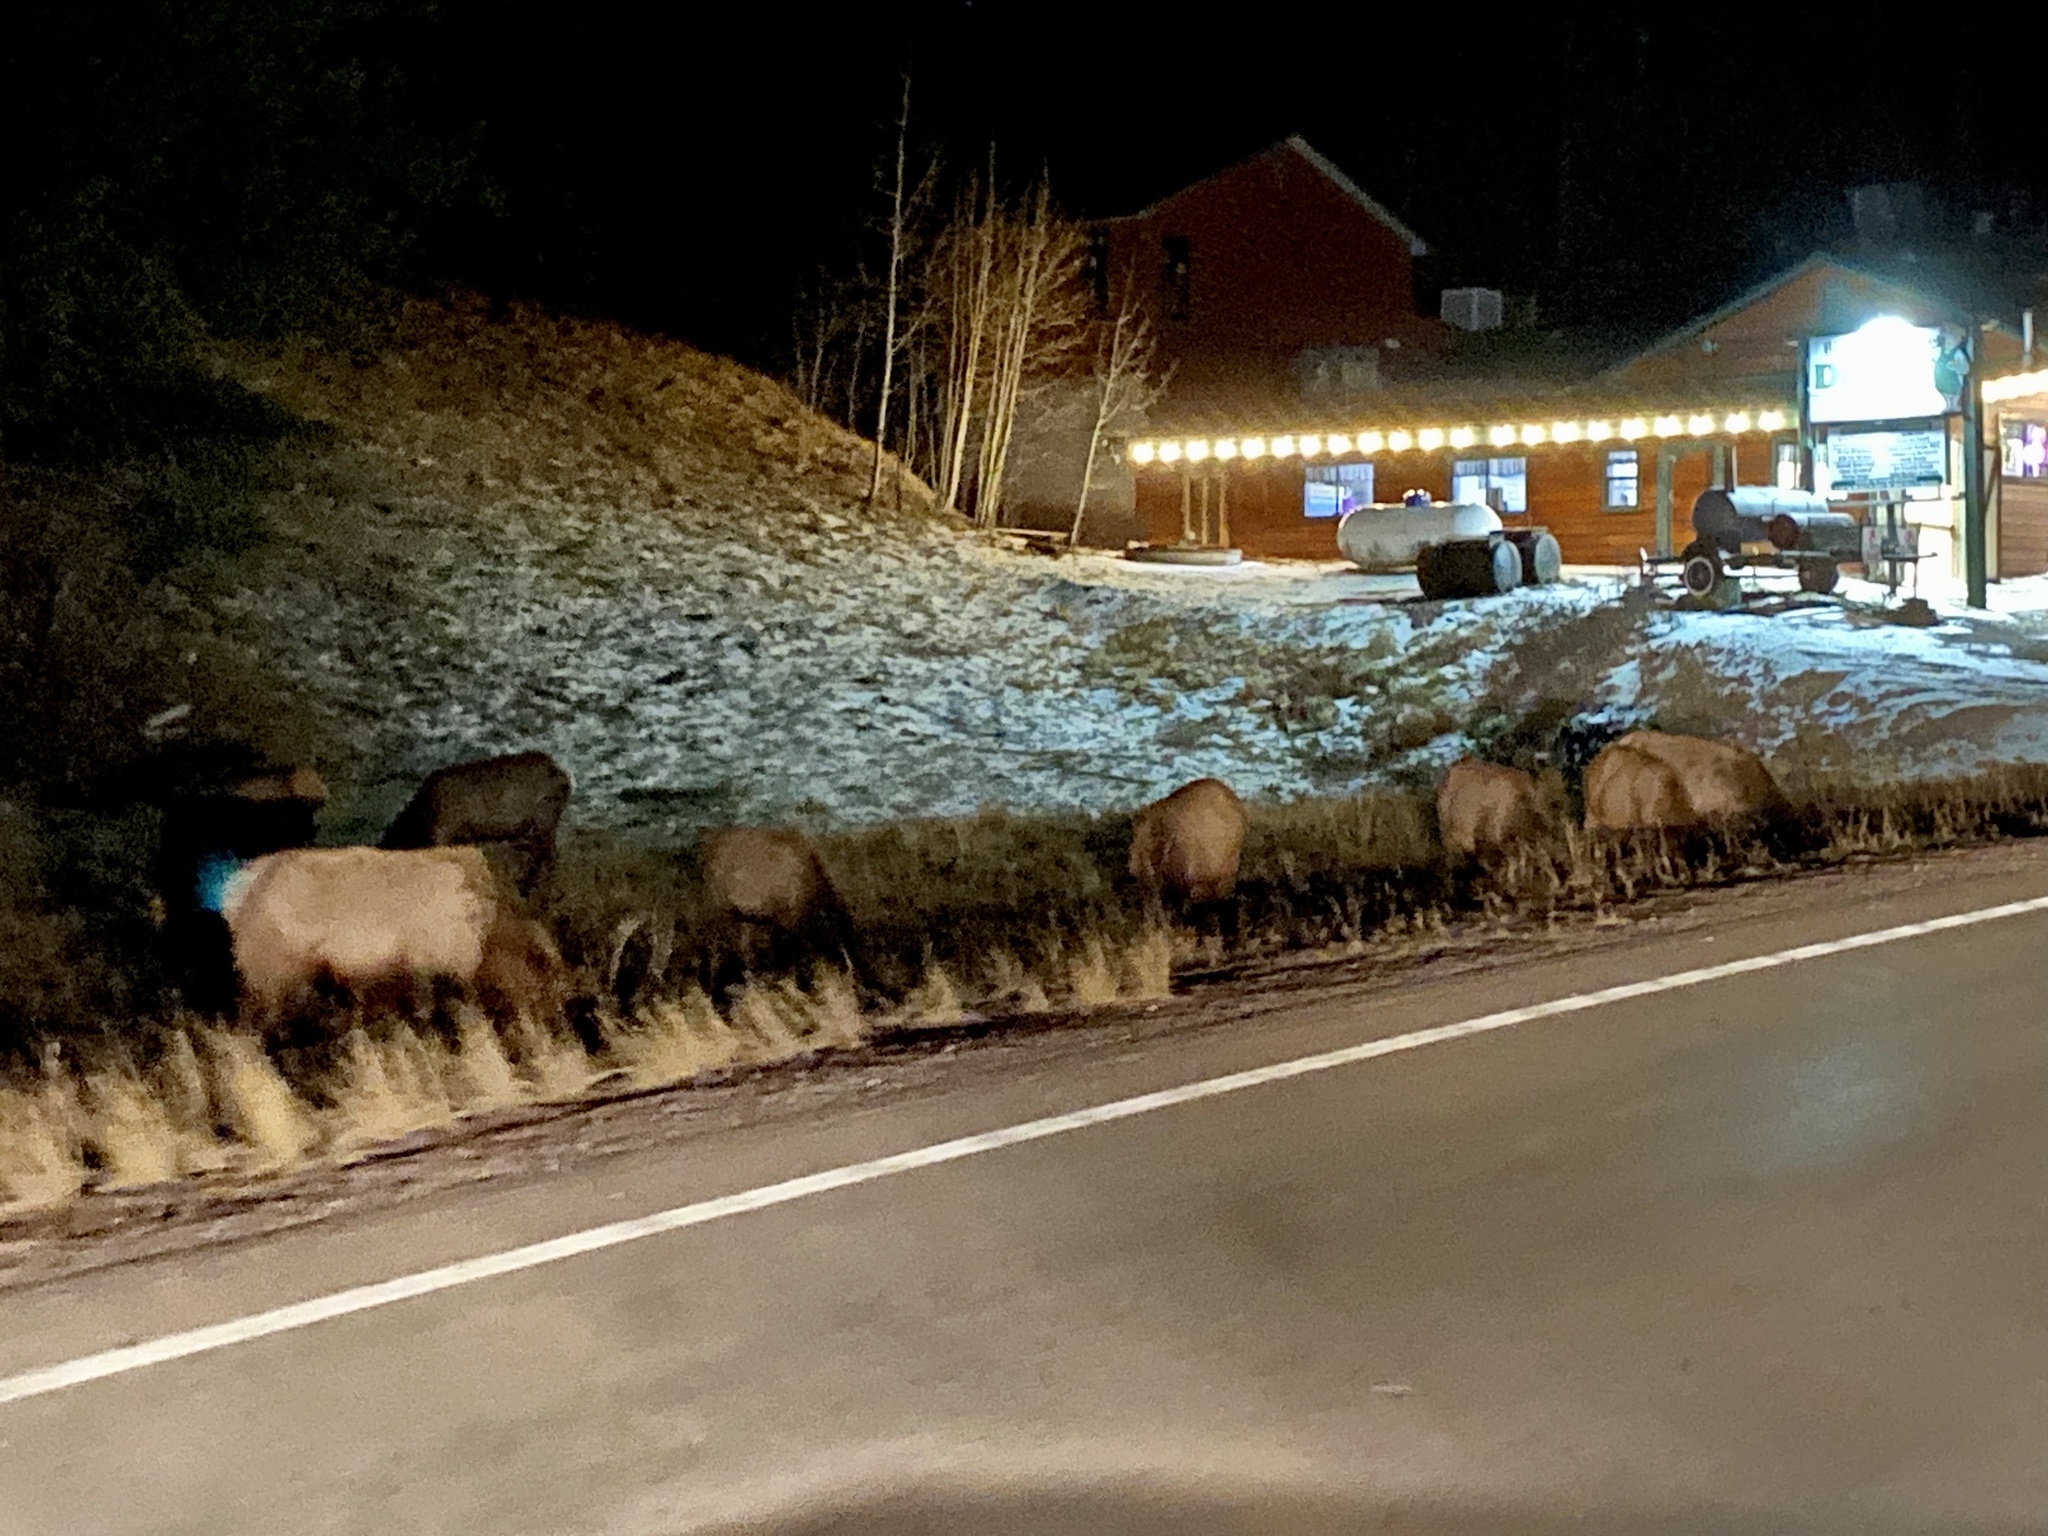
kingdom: Animalia
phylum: Chordata
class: Mammalia
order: Artiodactyla
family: Cervidae
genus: Cervus
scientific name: Cervus elaphus
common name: Red deer
